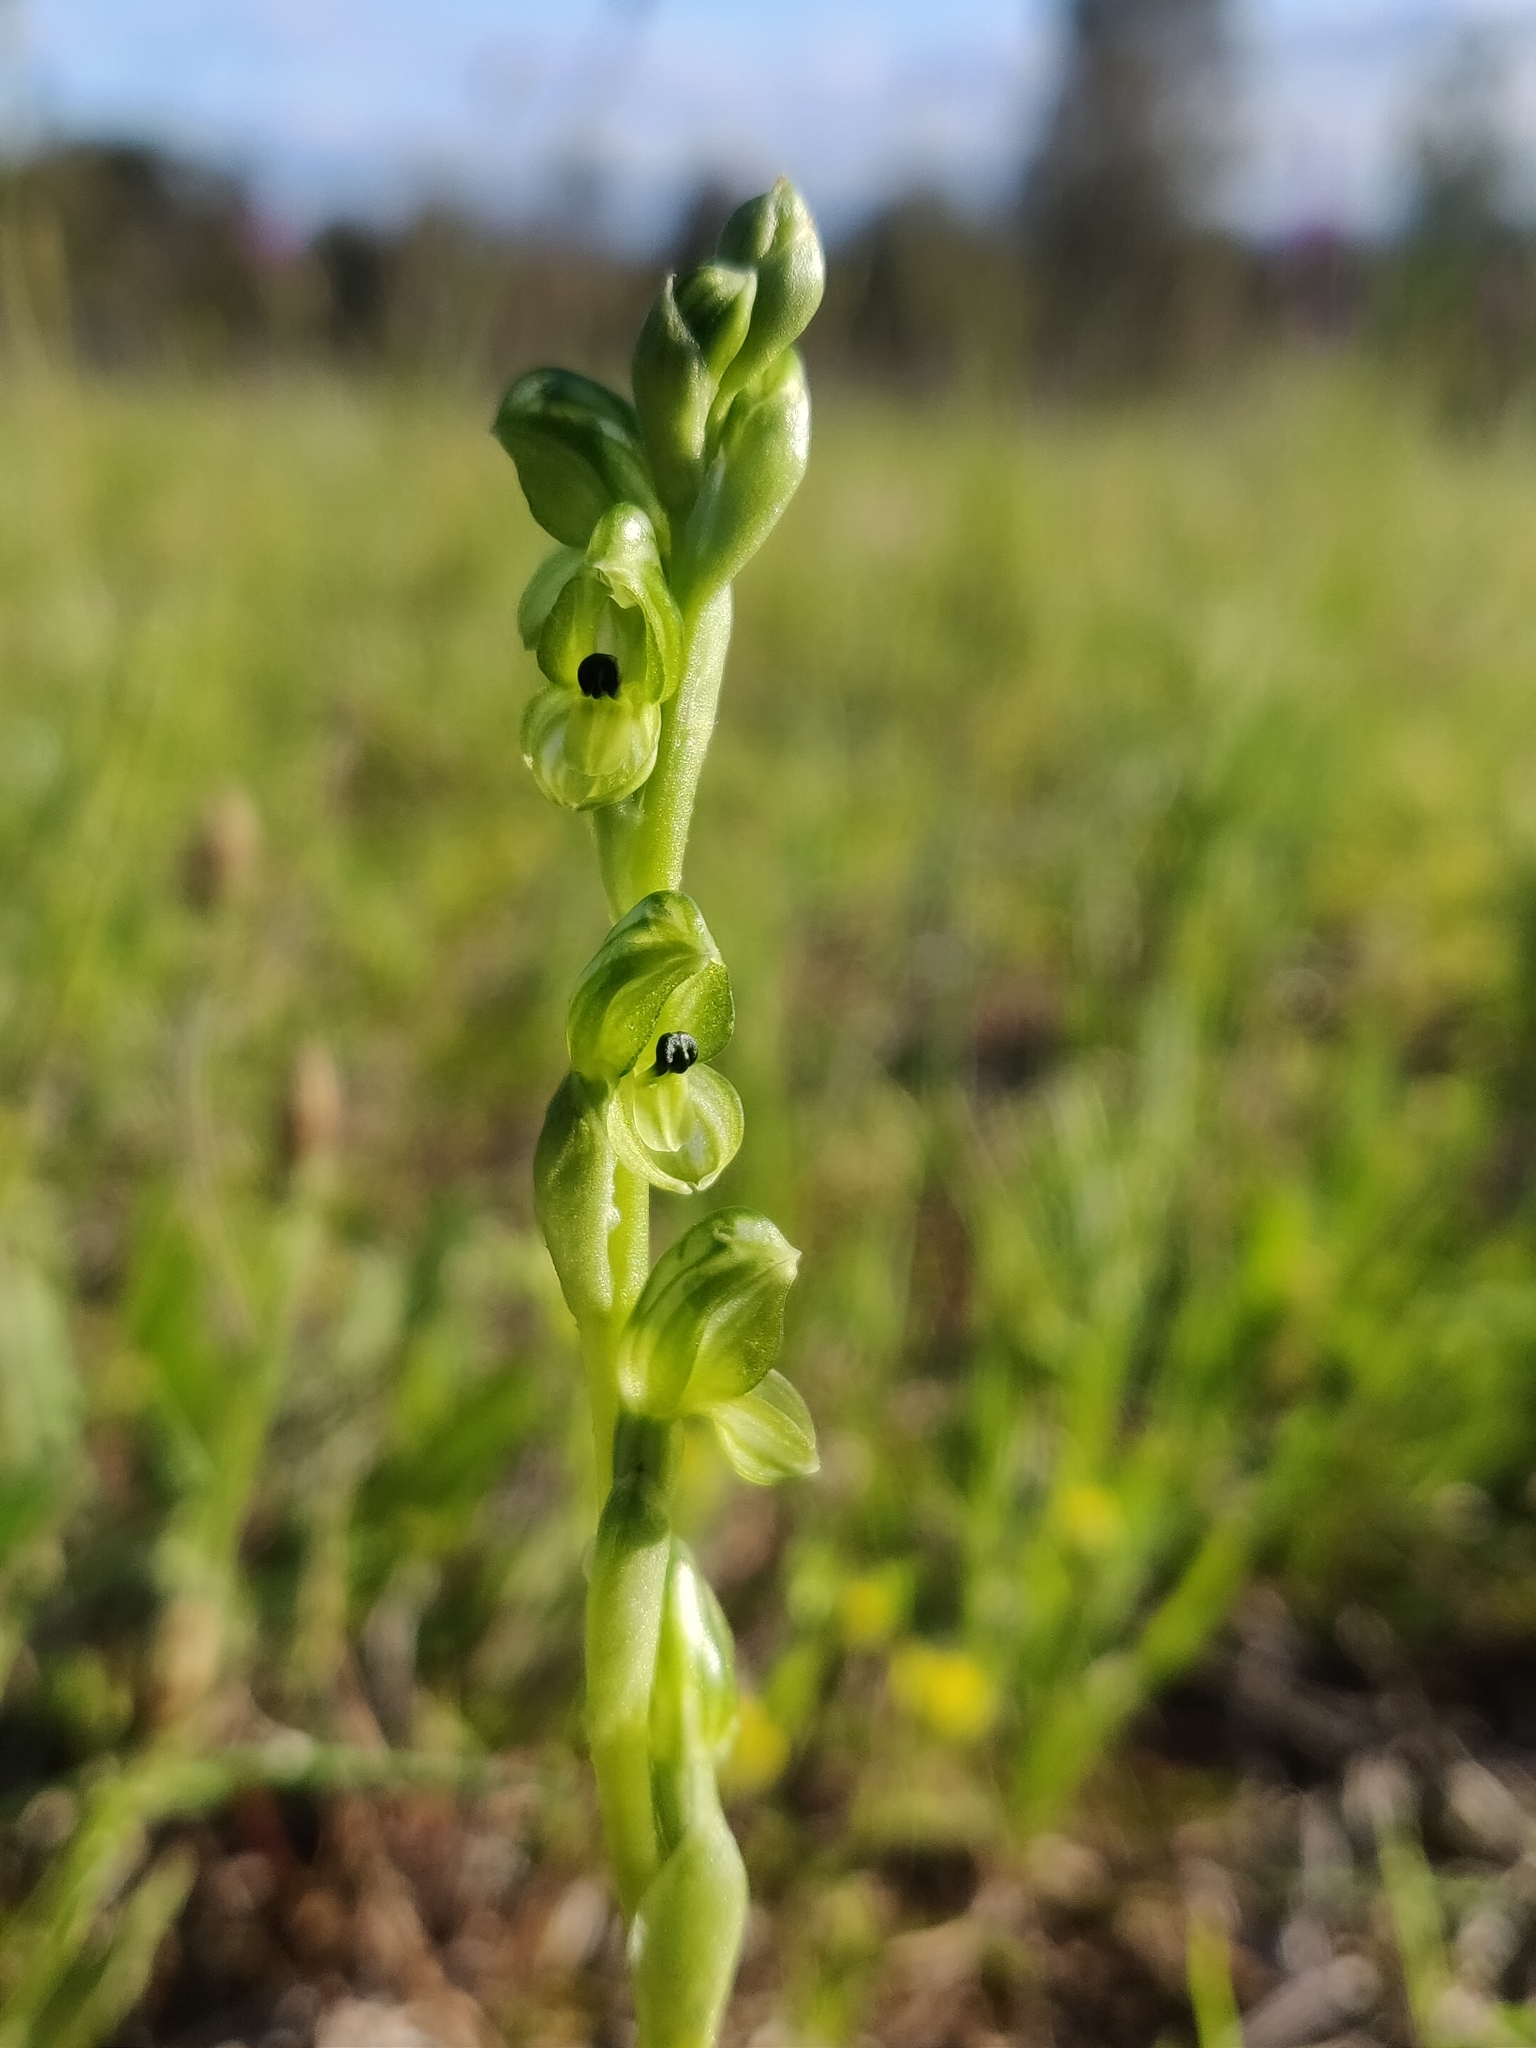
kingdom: Plantae
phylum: Tracheophyta
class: Liliopsida
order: Asparagales
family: Orchidaceae
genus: Pterostylis
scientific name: Pterostylis bicolor
